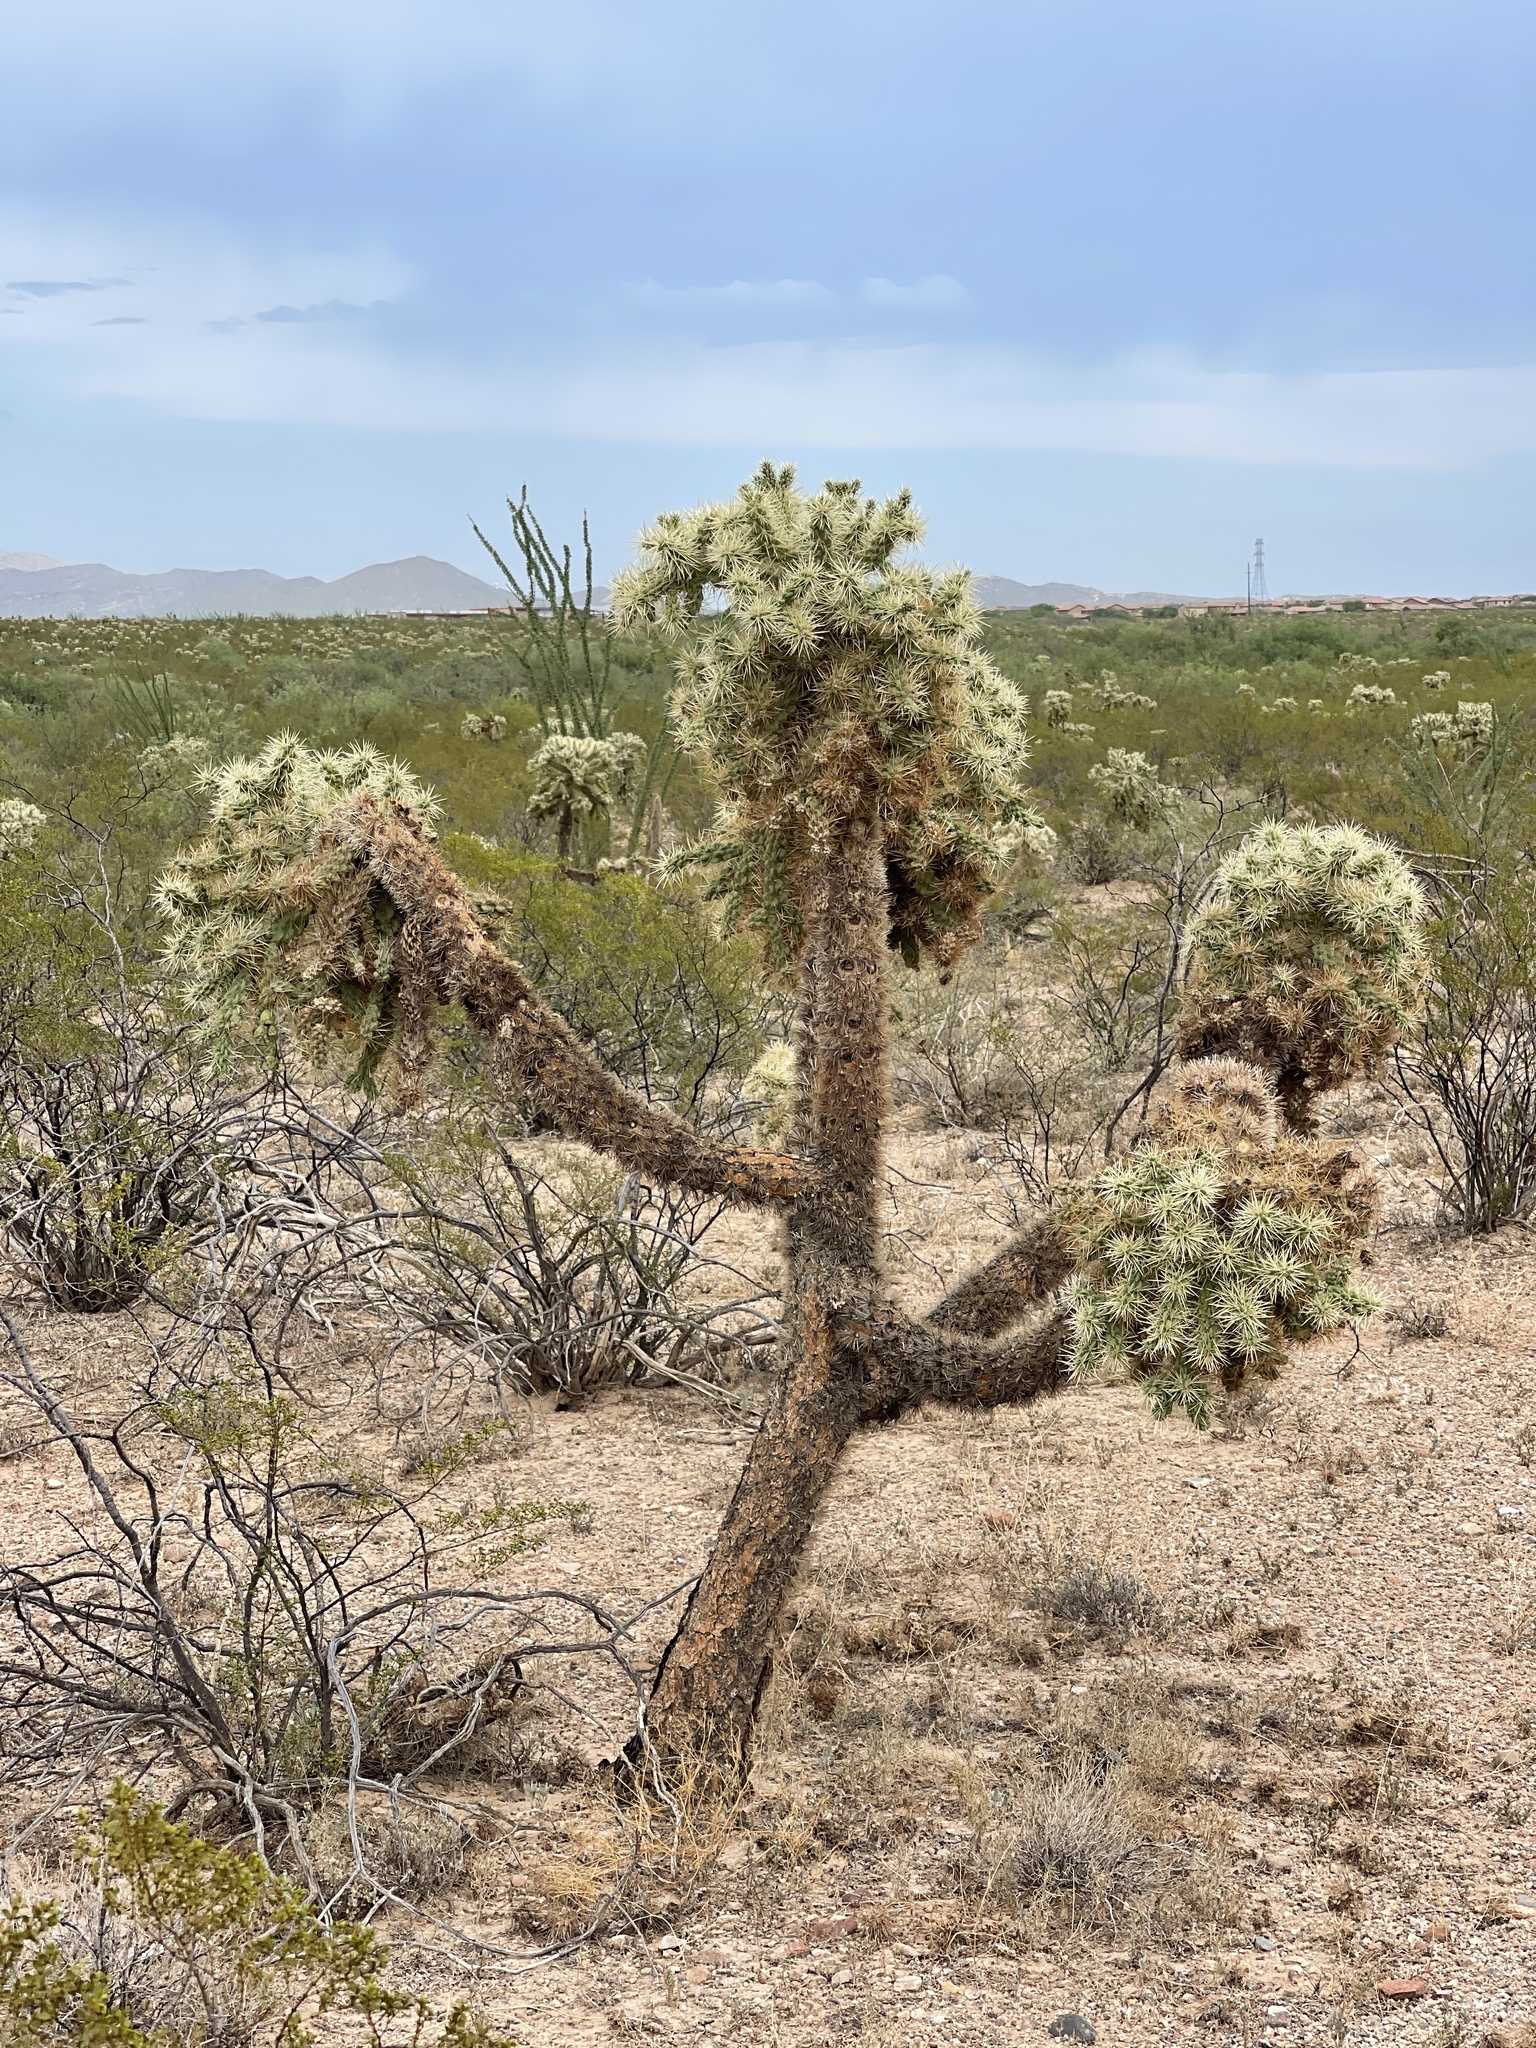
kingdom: Plantae
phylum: Tracheophyta
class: Magnoliopsida
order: Caryophyllales
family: Cactaceae
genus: Cylindropuntia
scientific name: Cylindropuntia fulgida
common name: Jumping cholla
